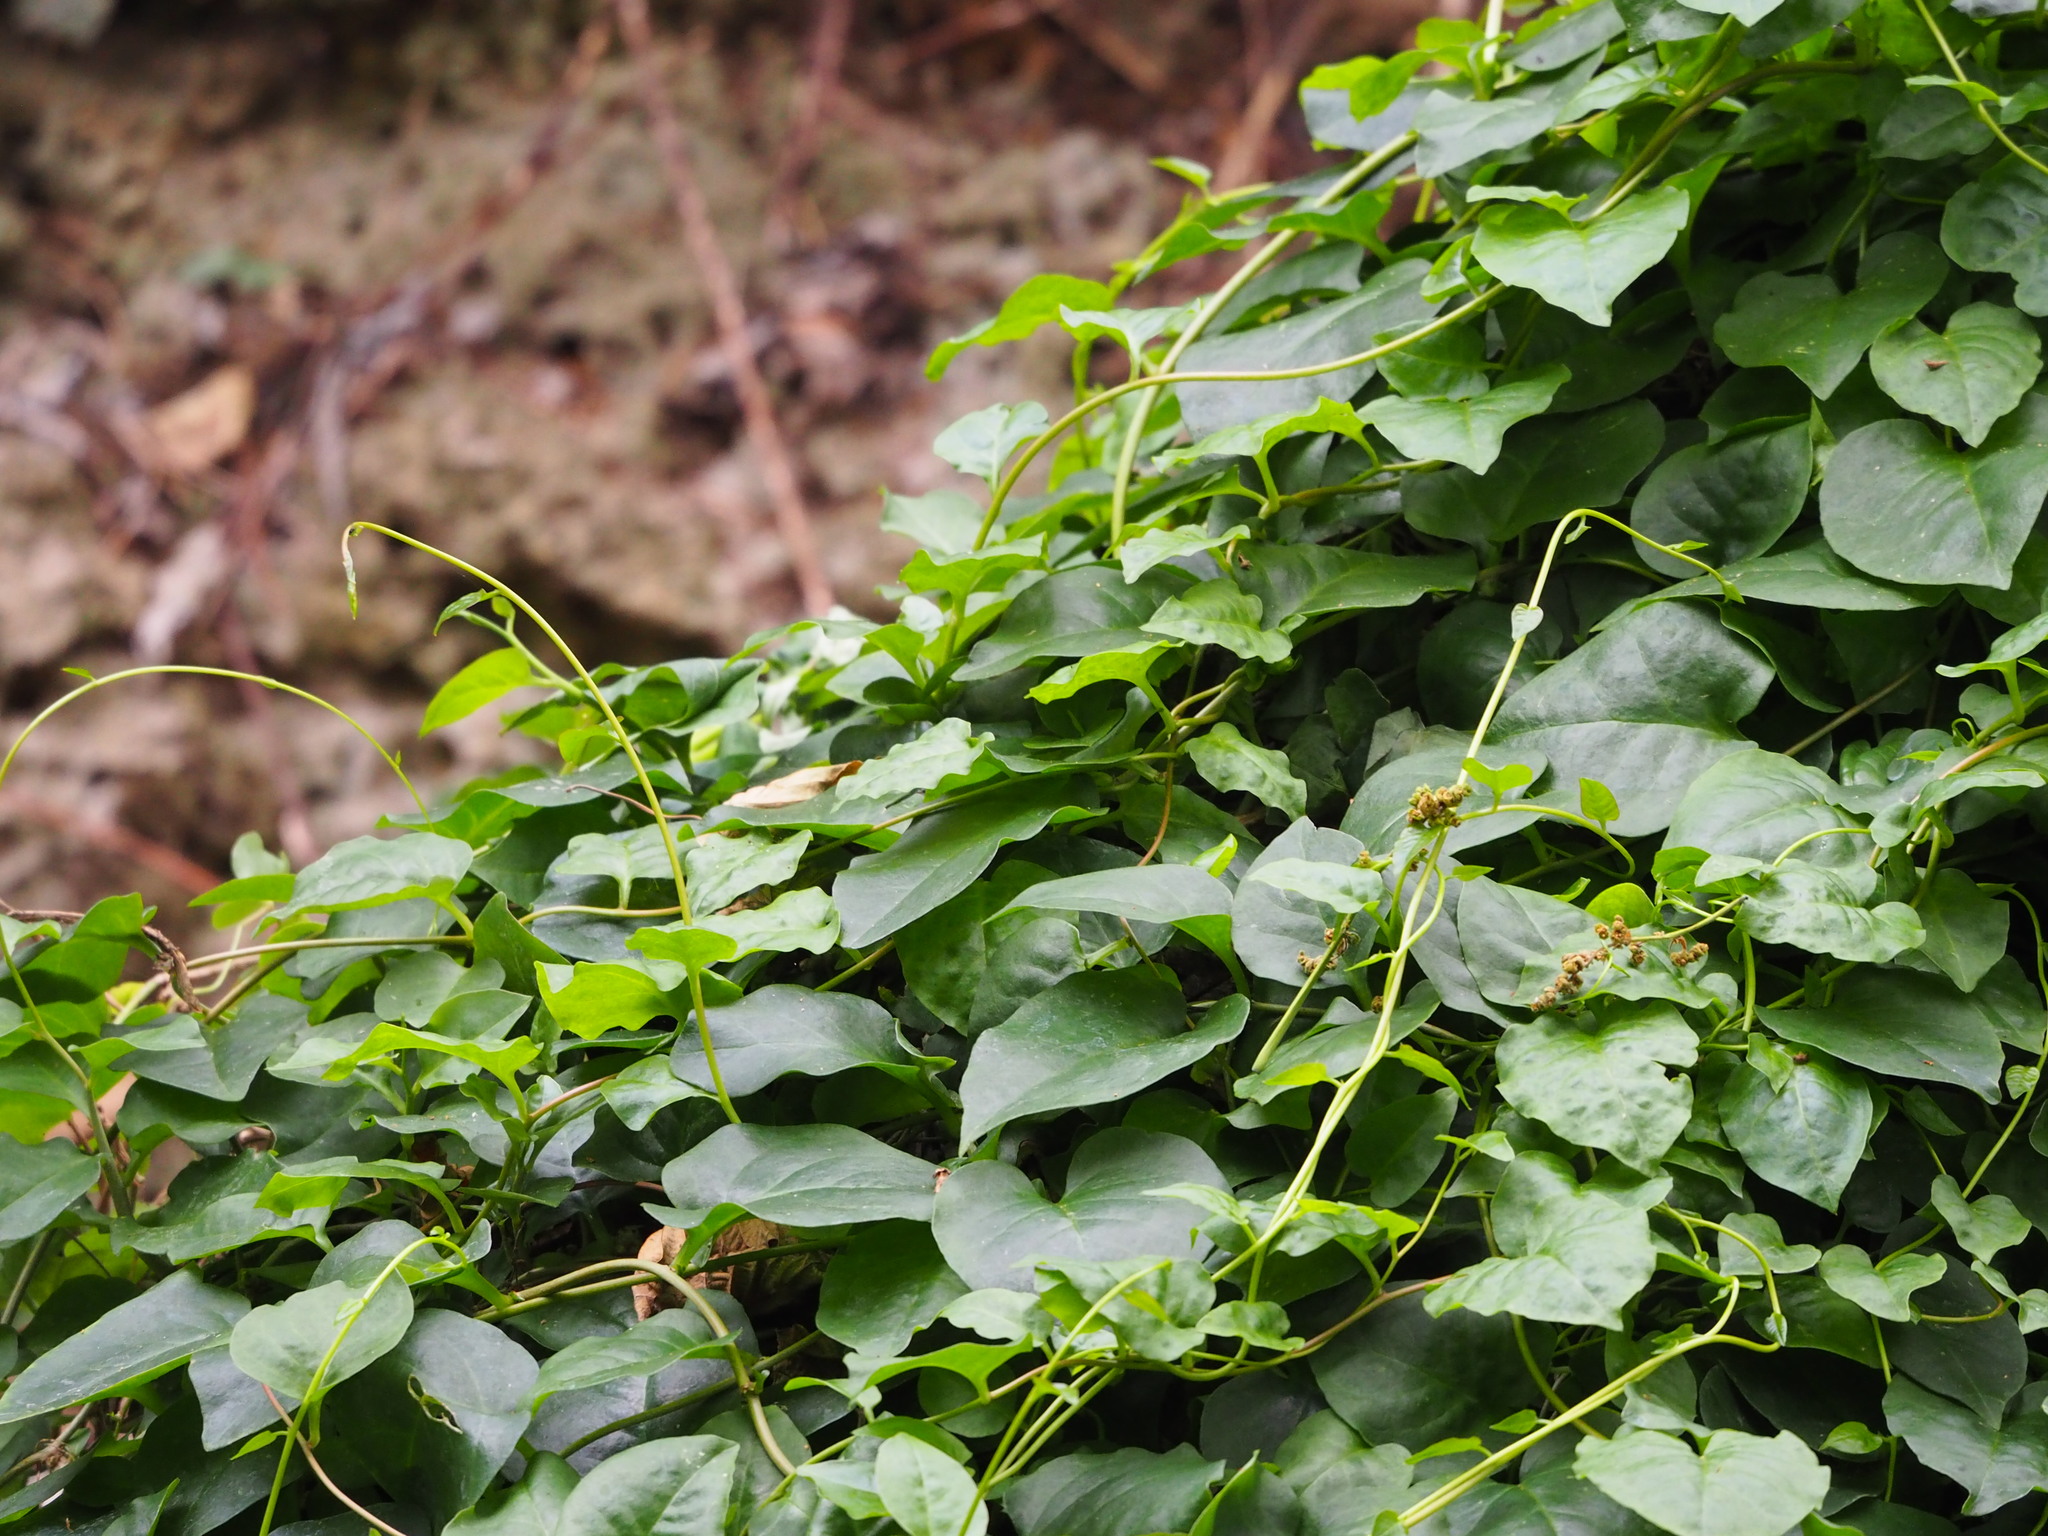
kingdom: Plantae
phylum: Tracheophyta
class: Magnoliopsida
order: Caryophyllales
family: Basellaceae
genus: Basella
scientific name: Basella alba
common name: Indian spinach
